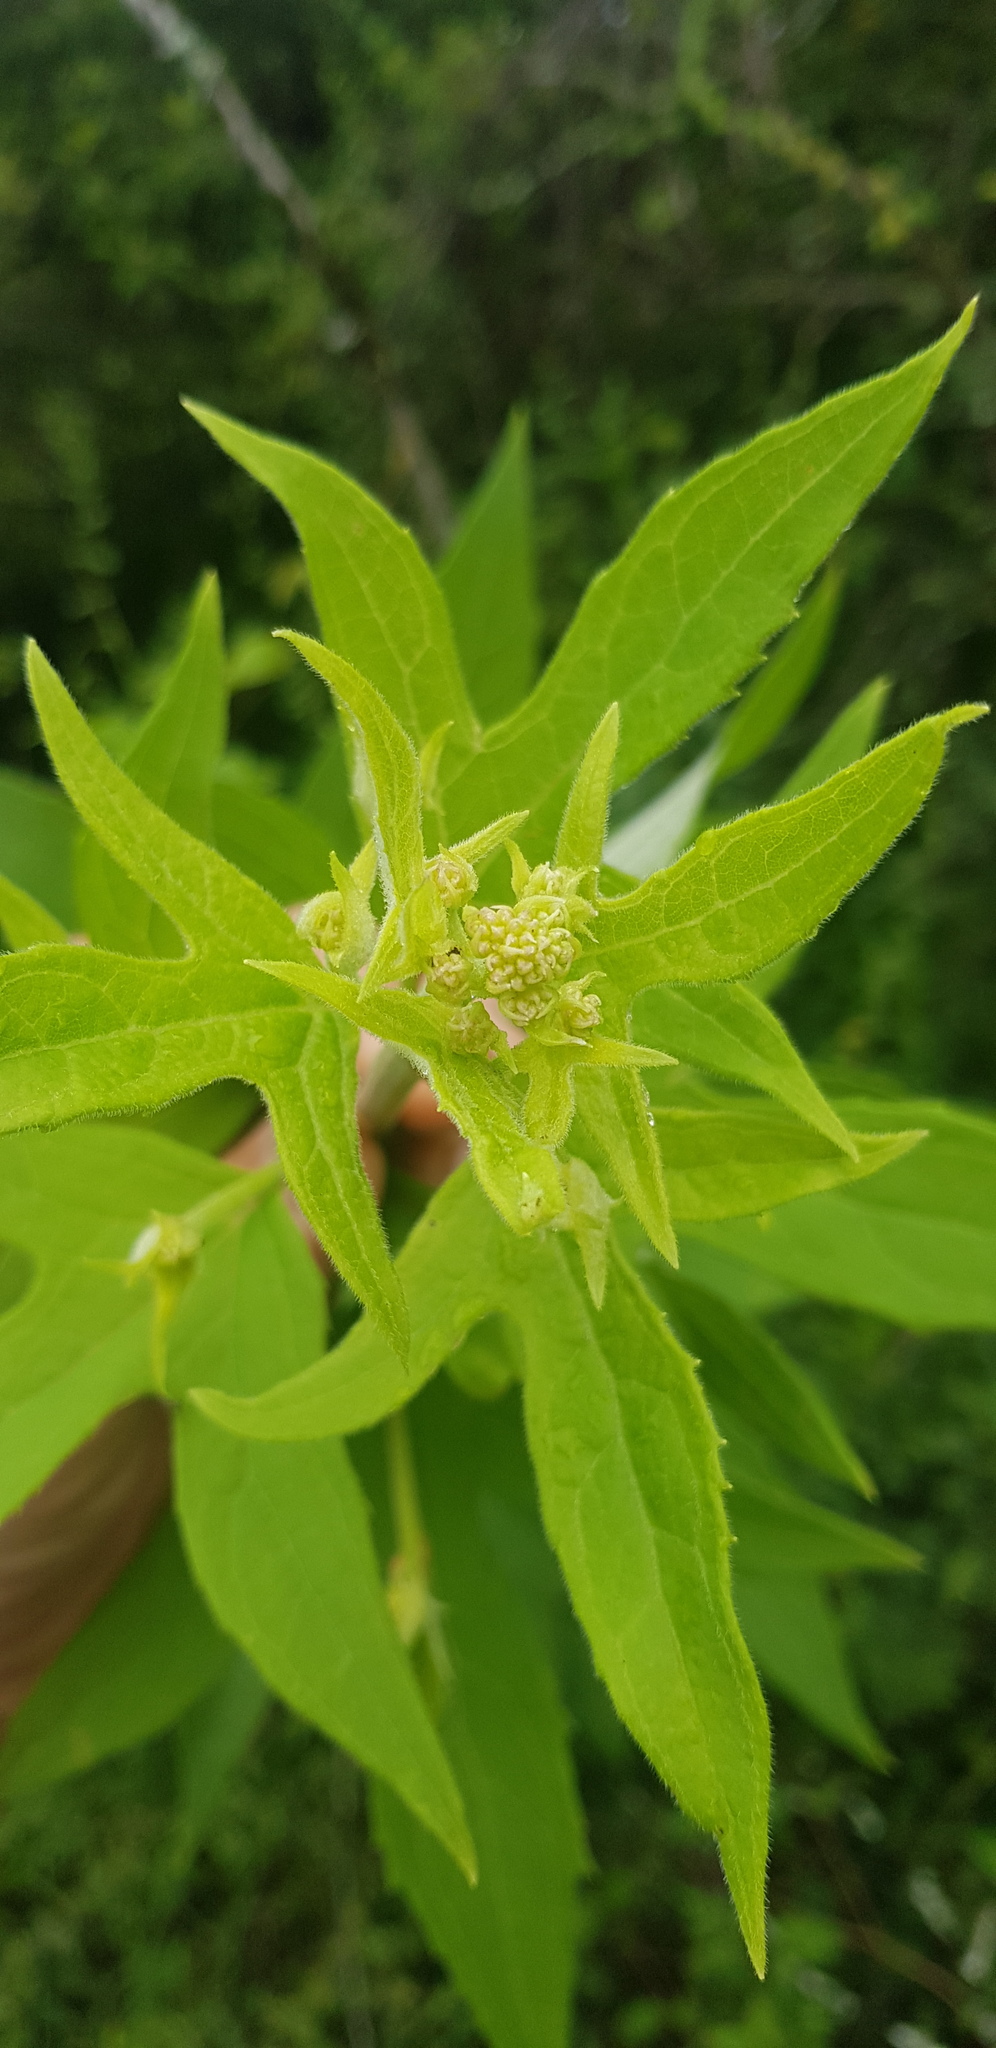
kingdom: Plantae
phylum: Tracheophyta
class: Magnoliopsida
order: Asterales
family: Asteraceae
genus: Digitacalia
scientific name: Digitacalia jatrophoides
